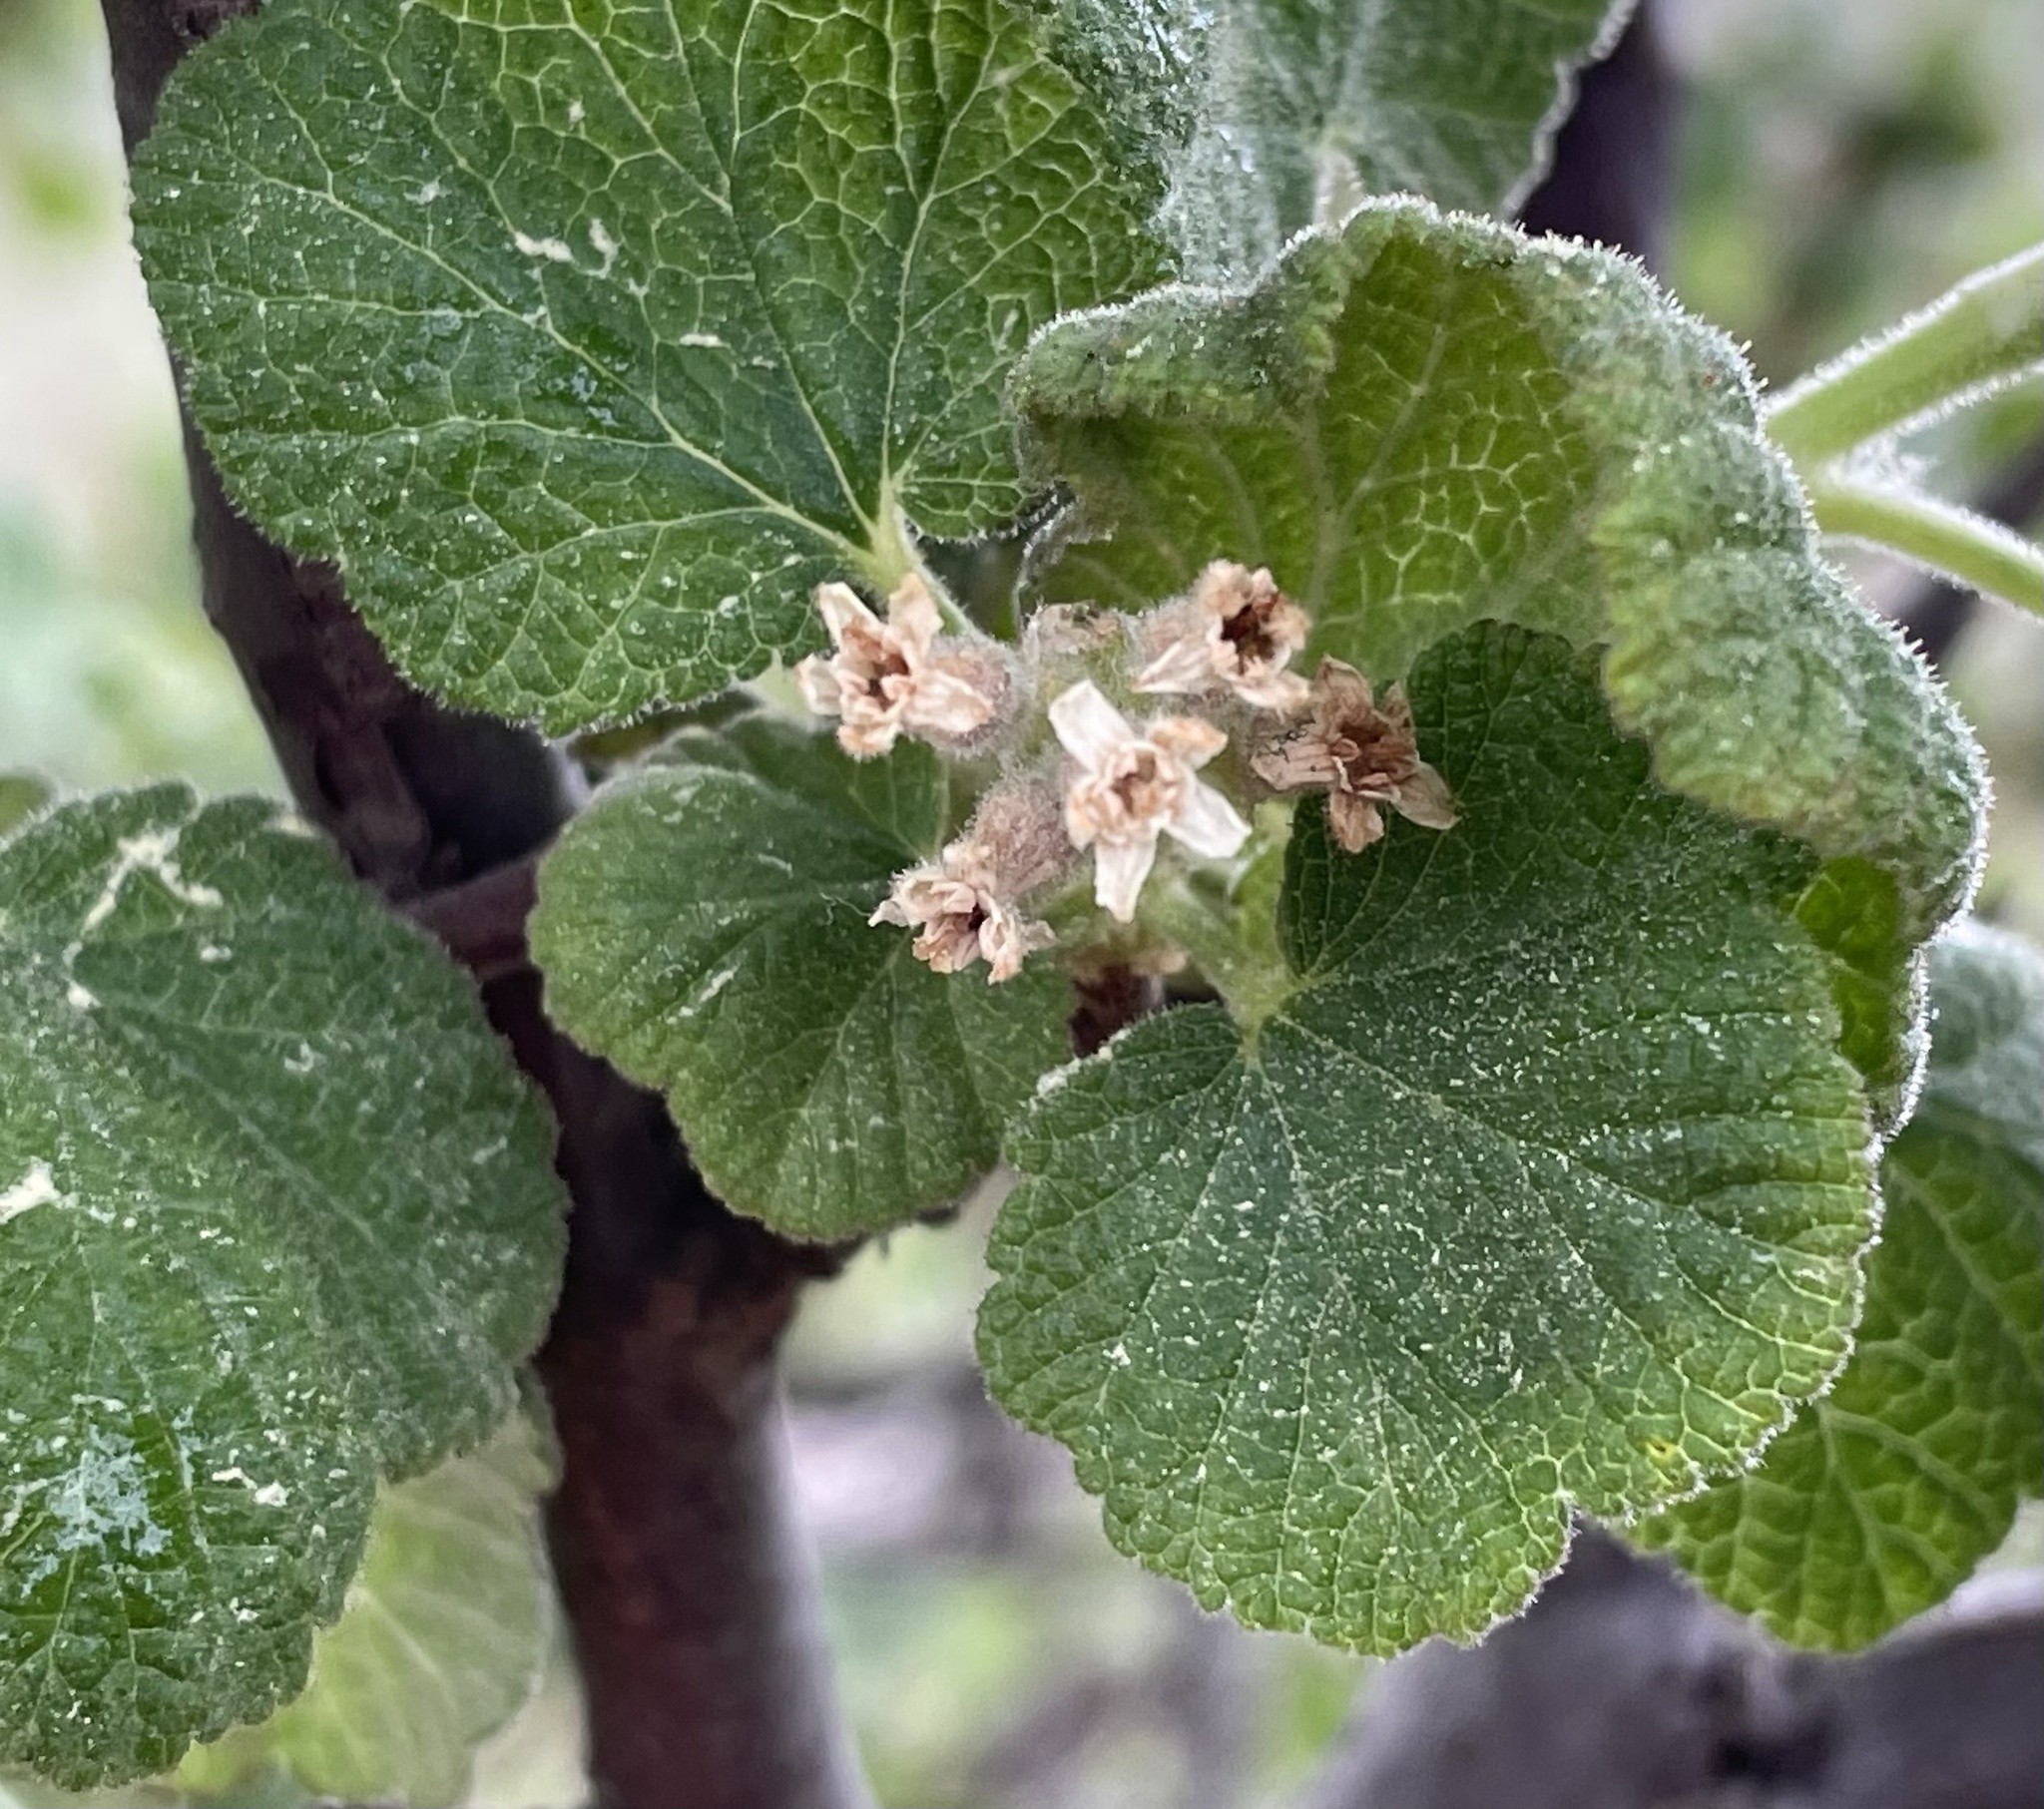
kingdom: Plantae
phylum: Tracheophyta
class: Magnoliopsida
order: Saxifragales
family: Grossulariaceae
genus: Ribes
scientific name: Ribes indecorum
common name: White-flower currant
